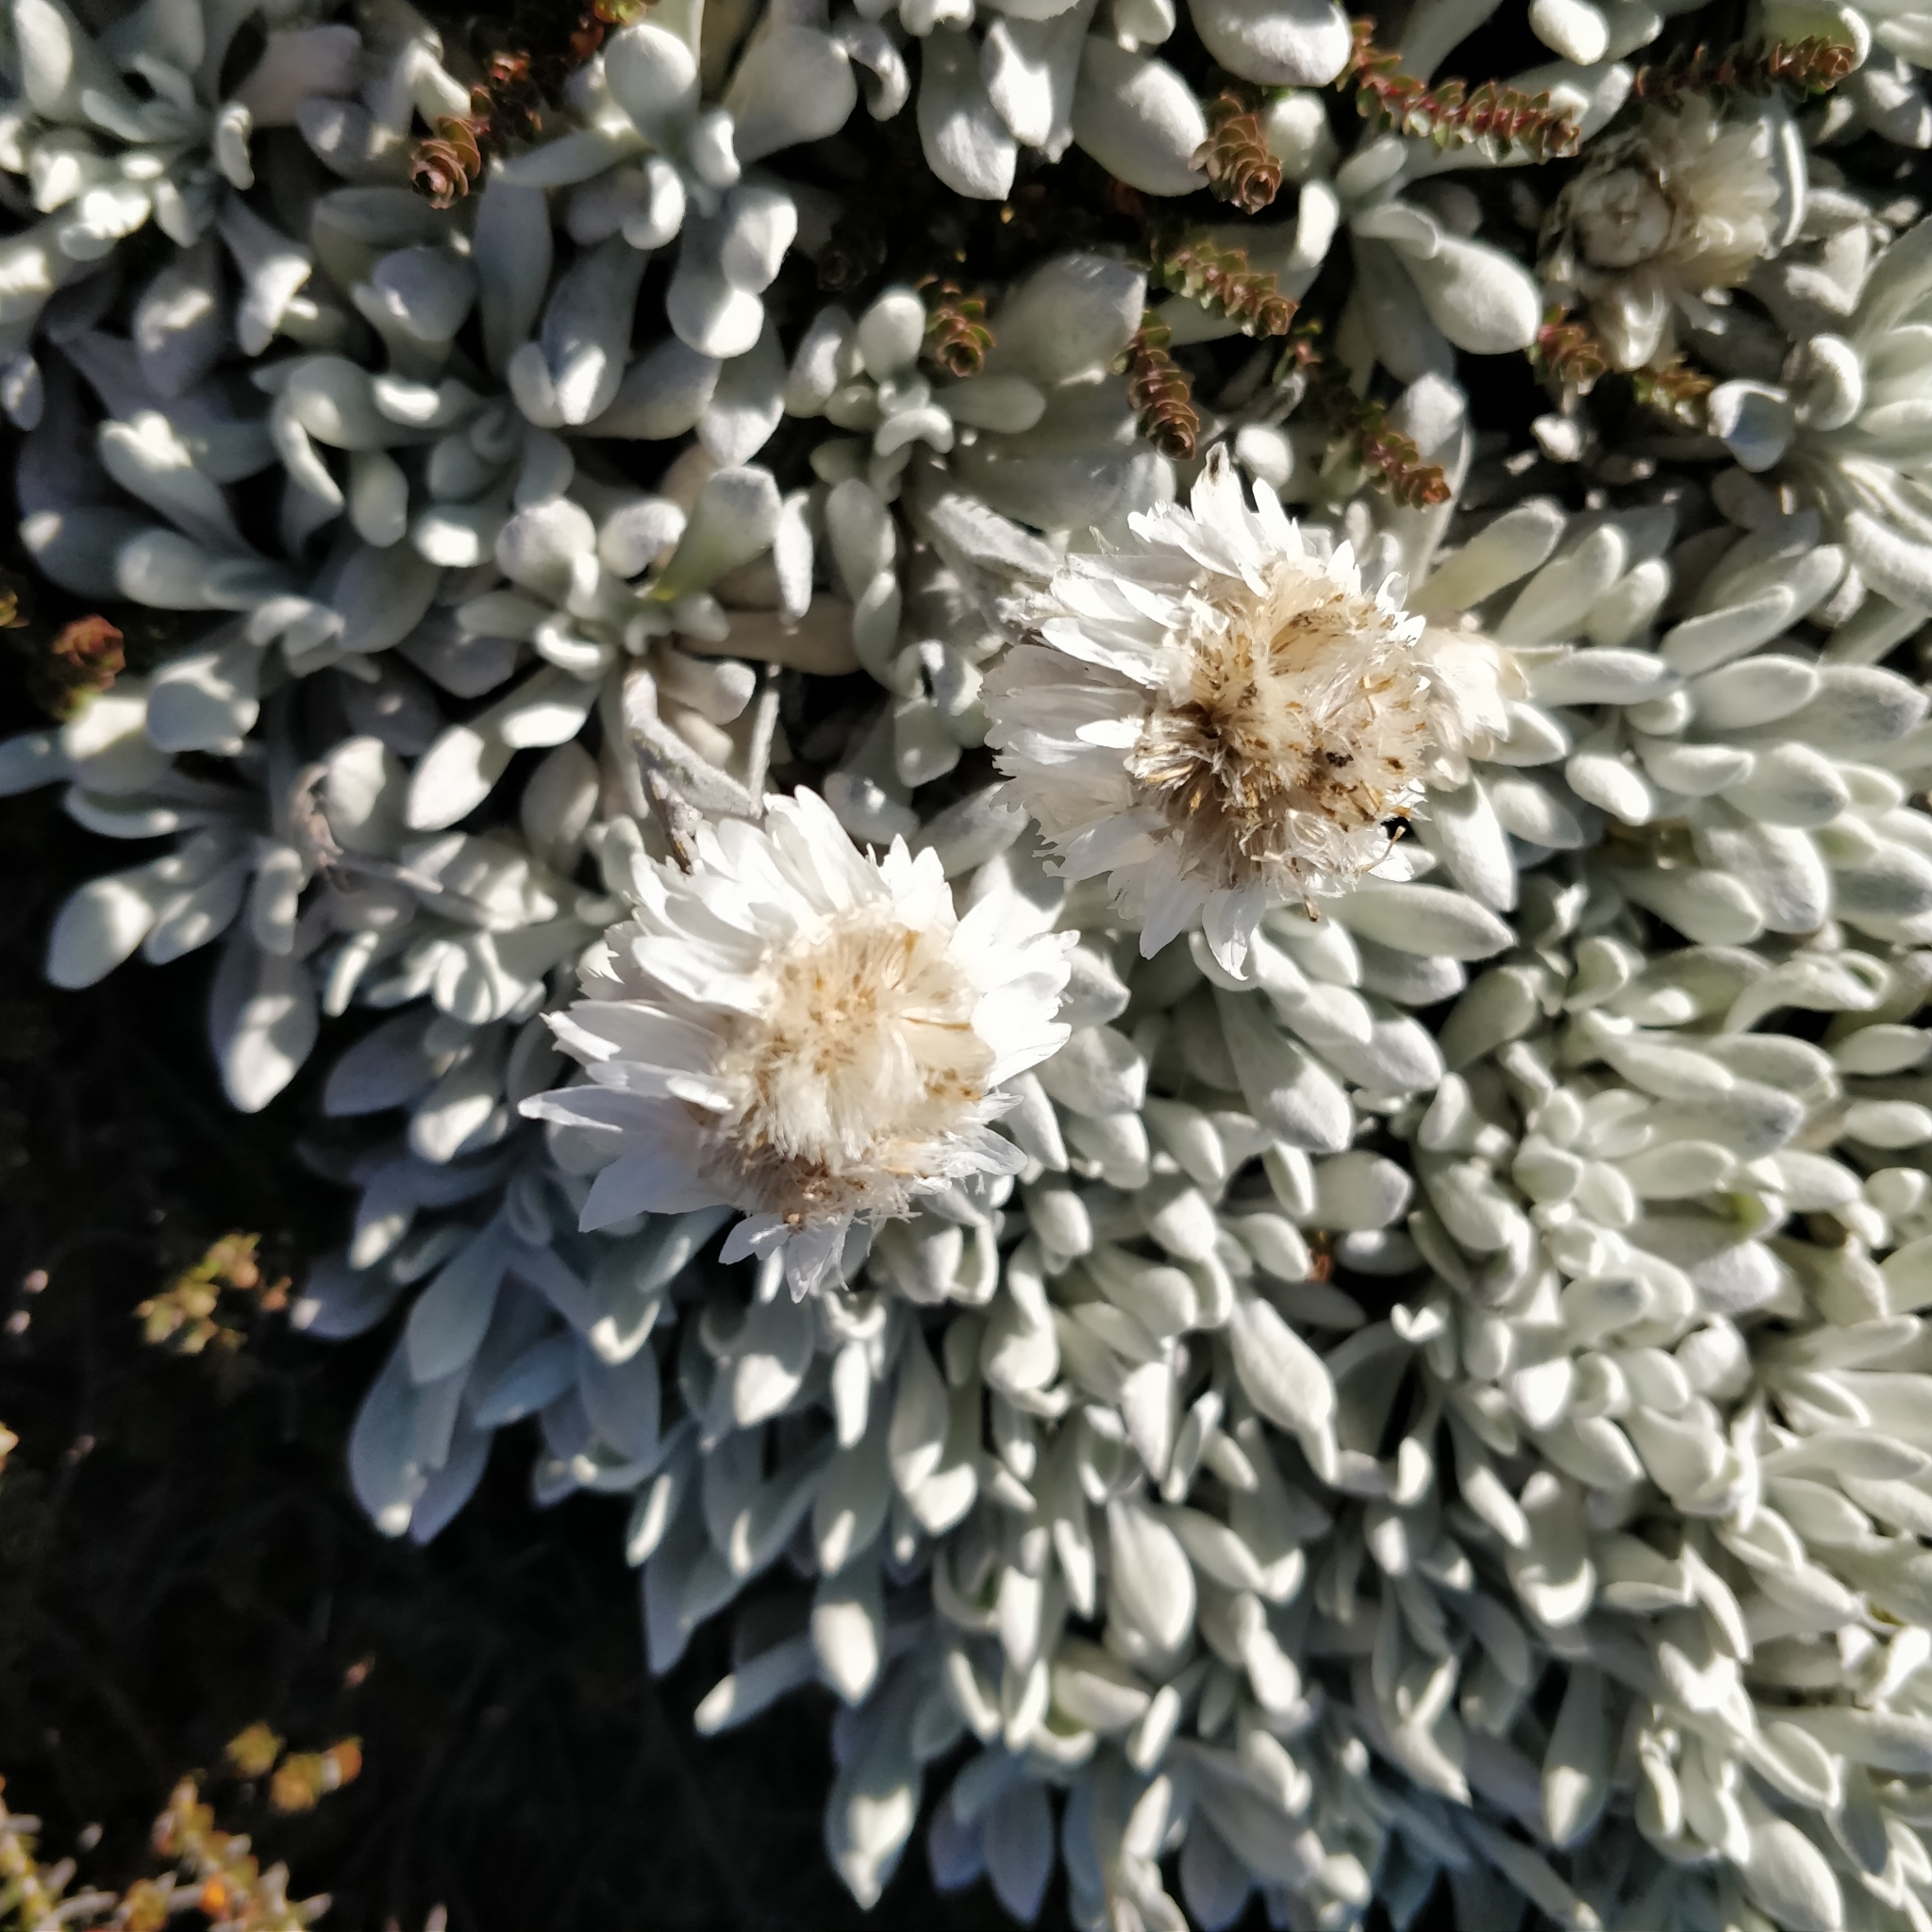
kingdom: Plantae
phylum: Tracheophyta
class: Magnoliopsida
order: Asterales
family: Asteraceae
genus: Leucochrysum
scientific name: Leucochrysum alpinum
